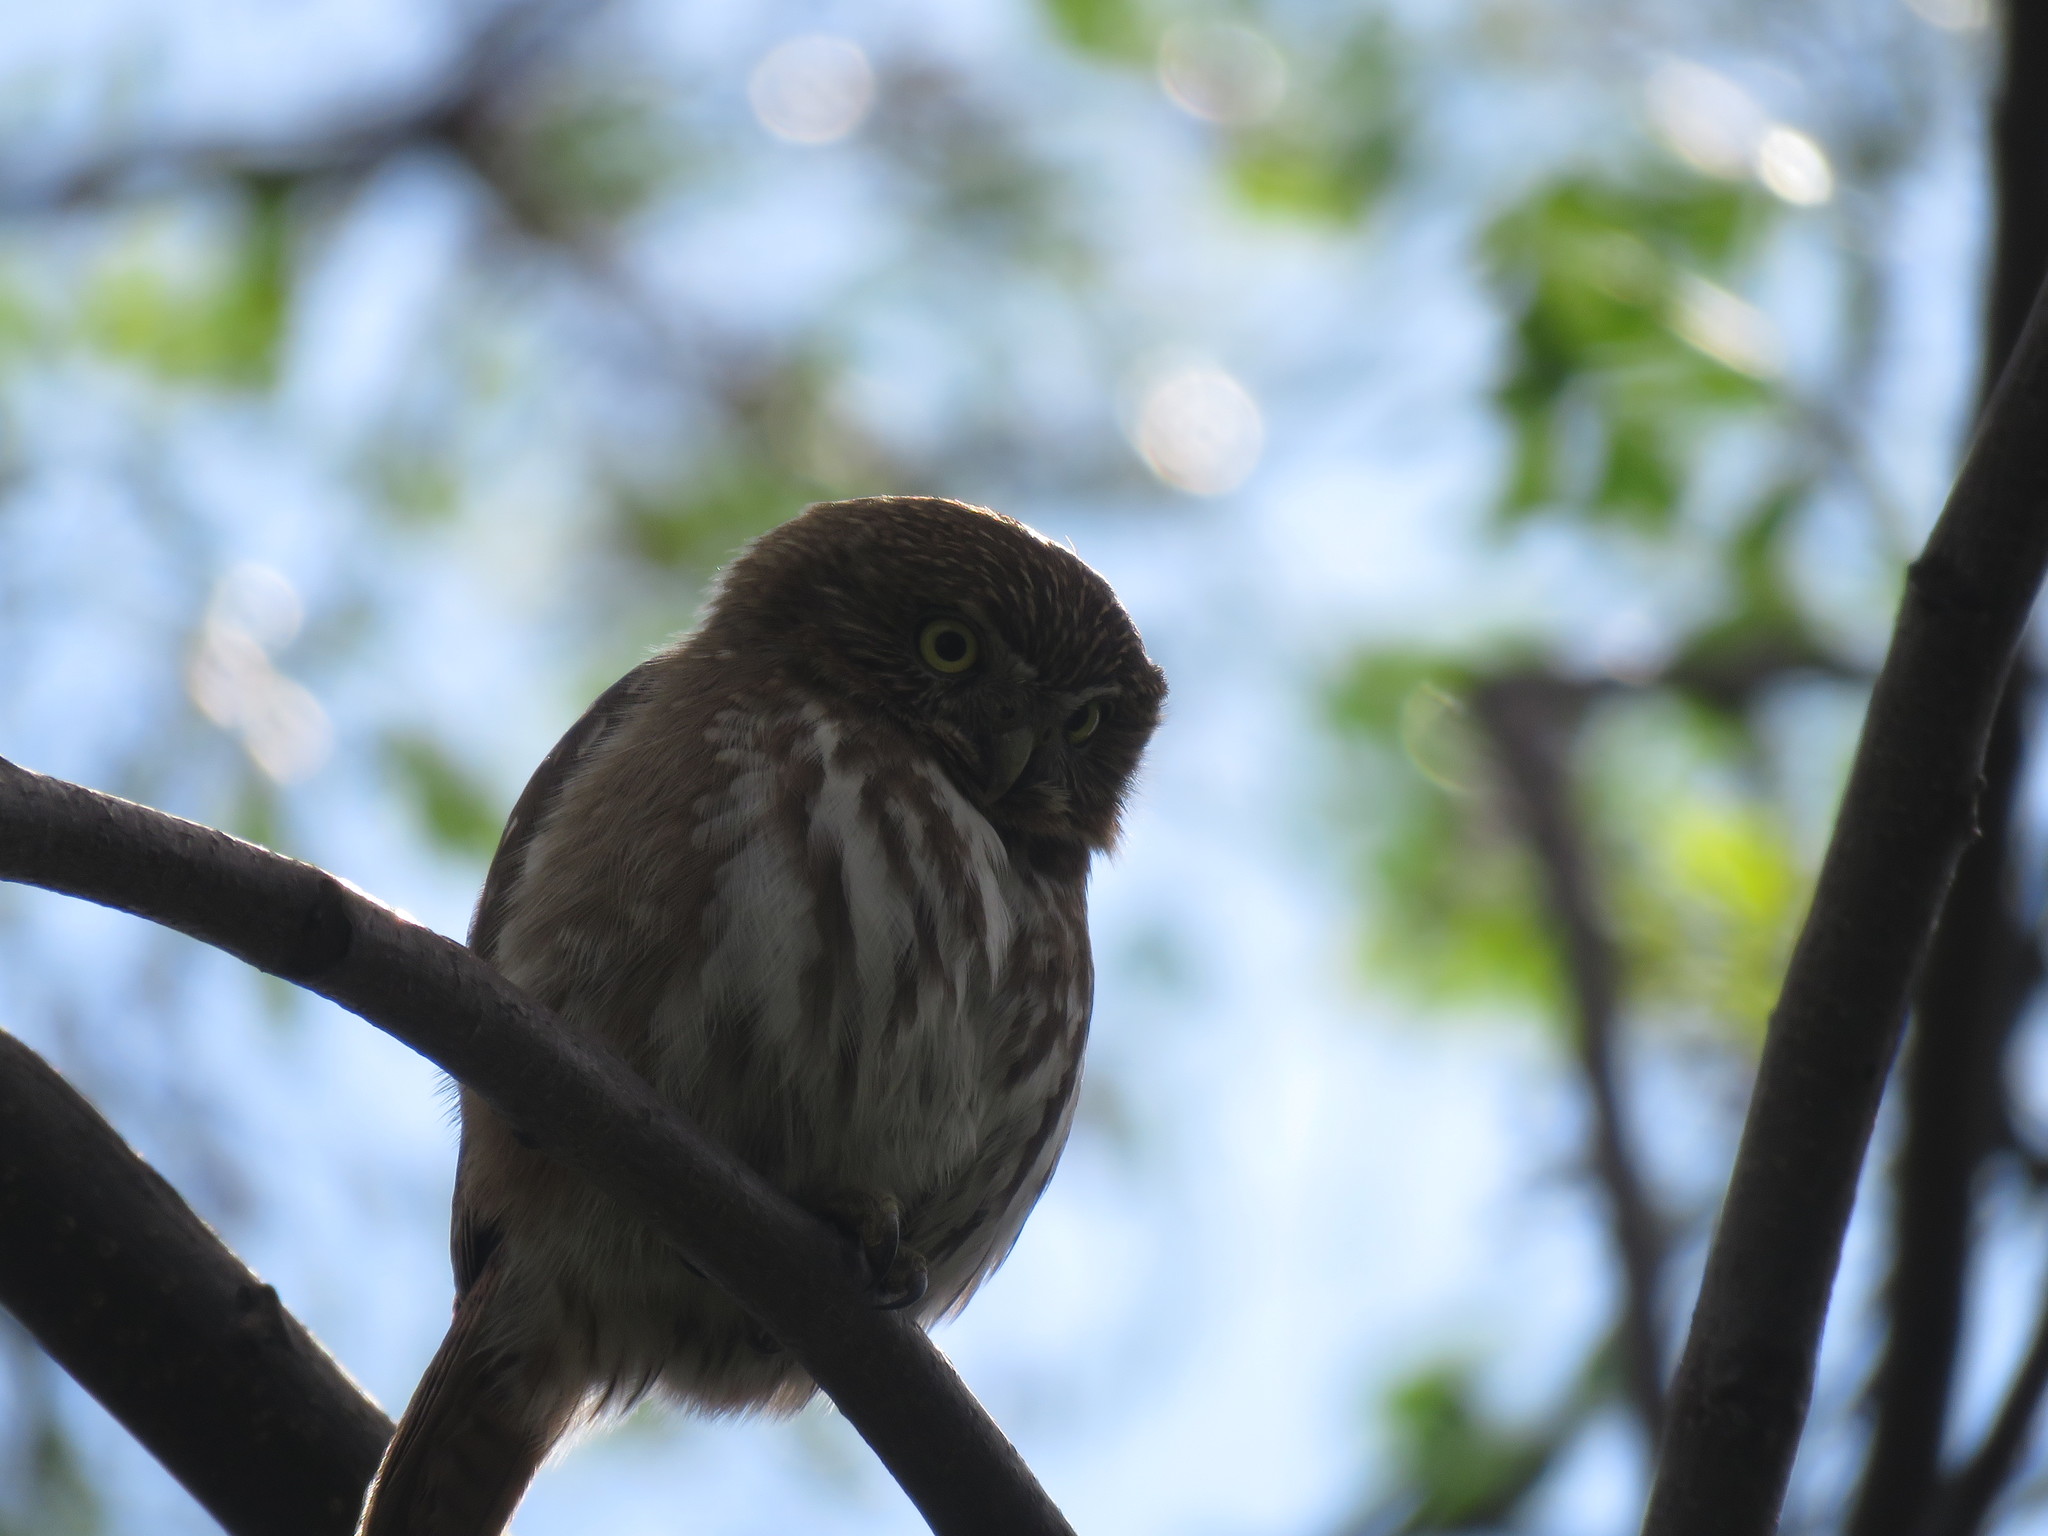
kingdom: Animalia
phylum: Chordata
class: Aves
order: Strigiformes
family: Strigidae
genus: Glaucidium
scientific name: Glaucidium brasilianum
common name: Ferruginous pygmy-owl
